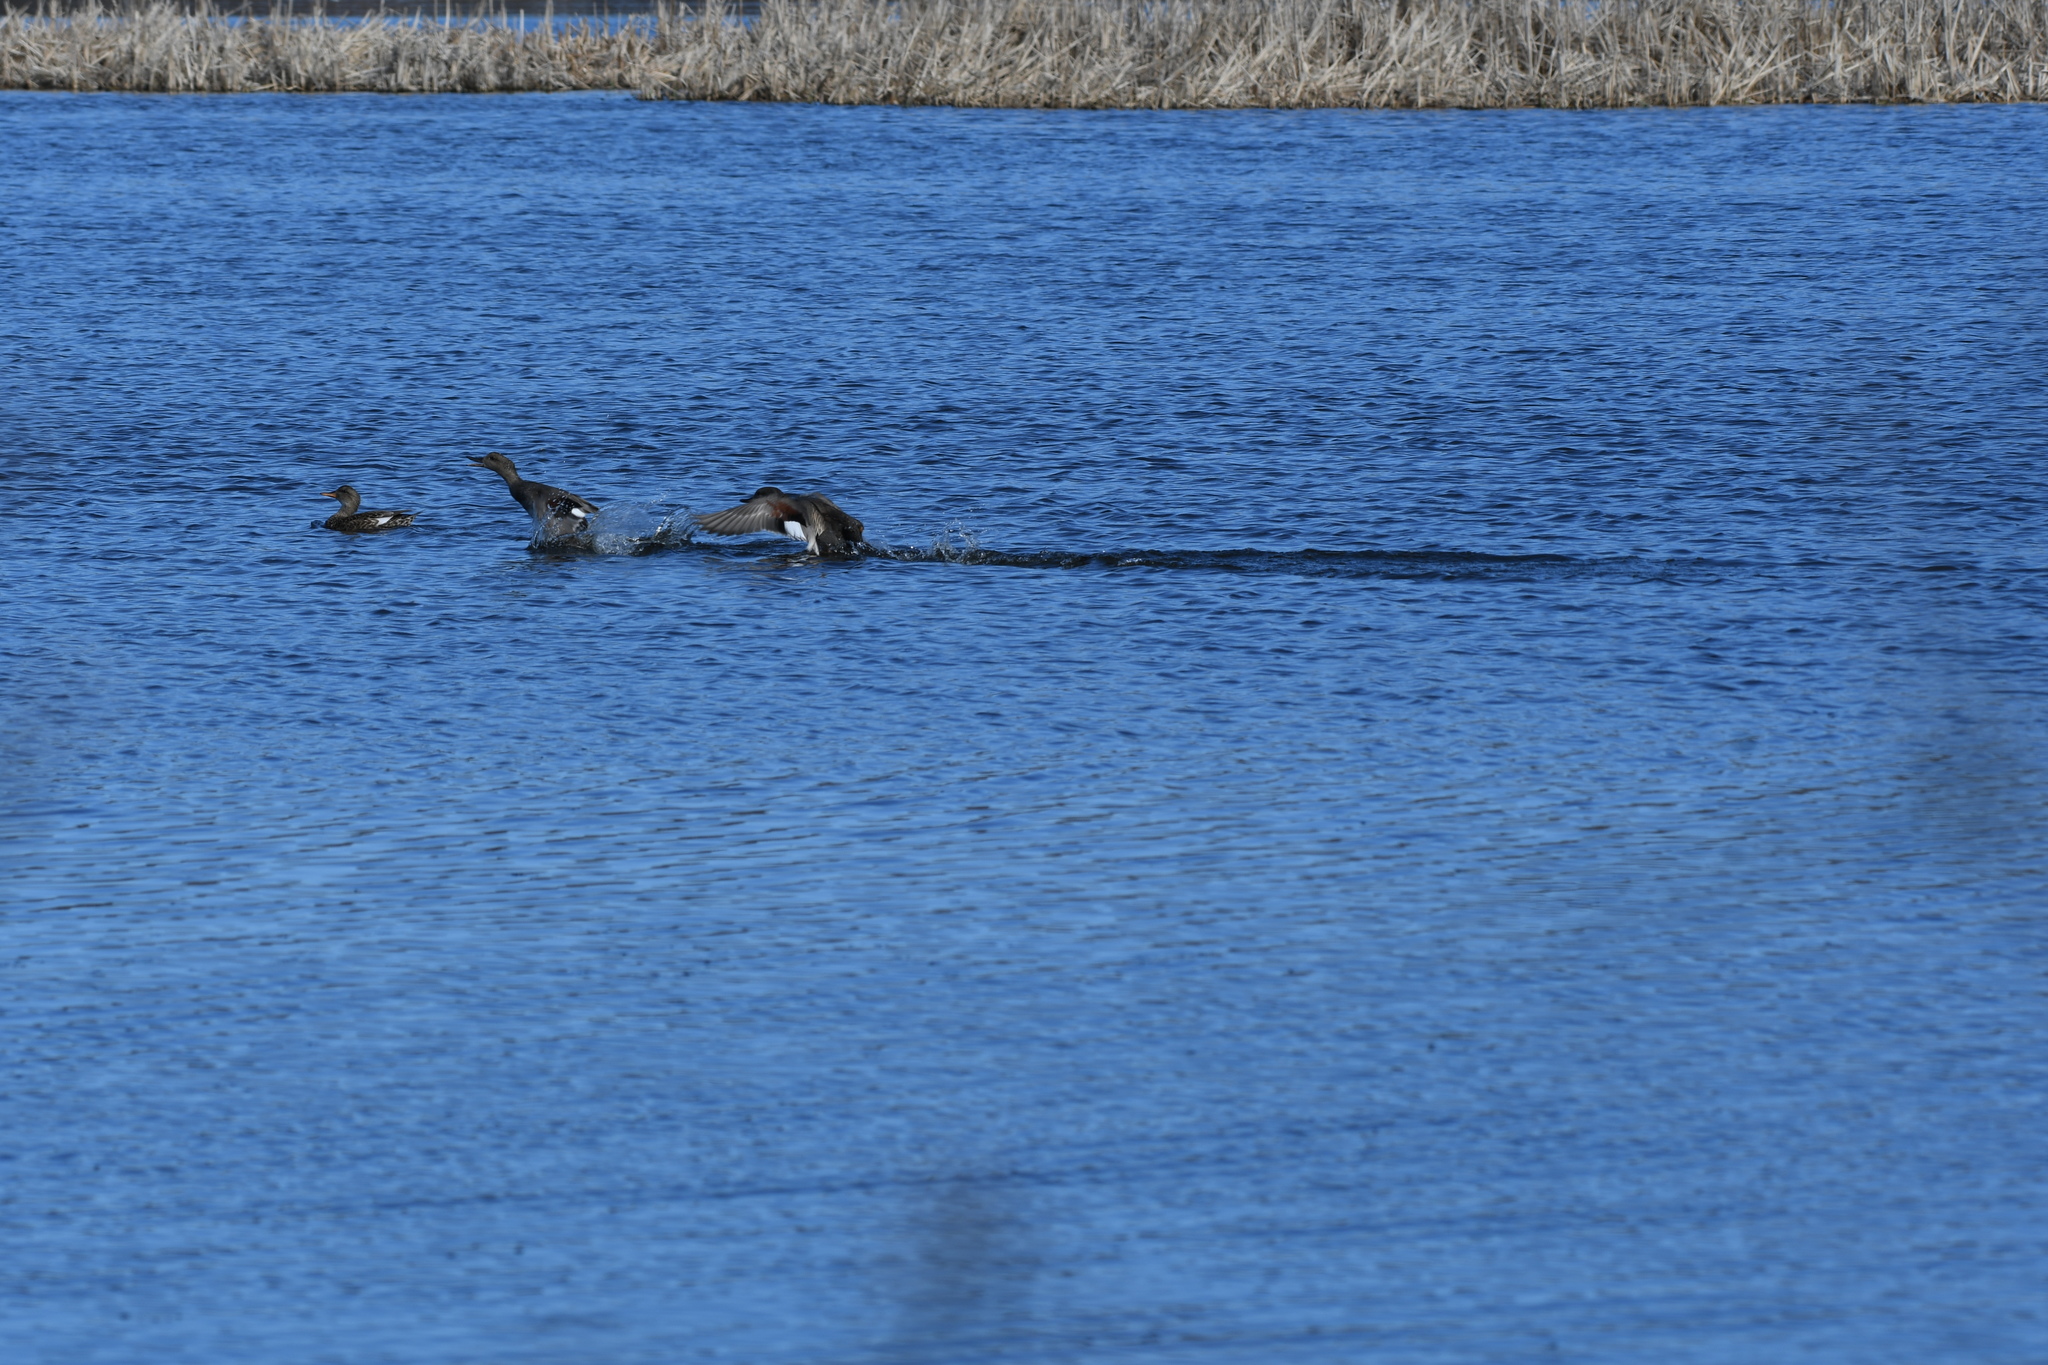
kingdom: Animalia
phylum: Chordata
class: Aves
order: Anseriformes
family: Anatidae
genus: Mareca
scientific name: Mareca strepera
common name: Gadwall
